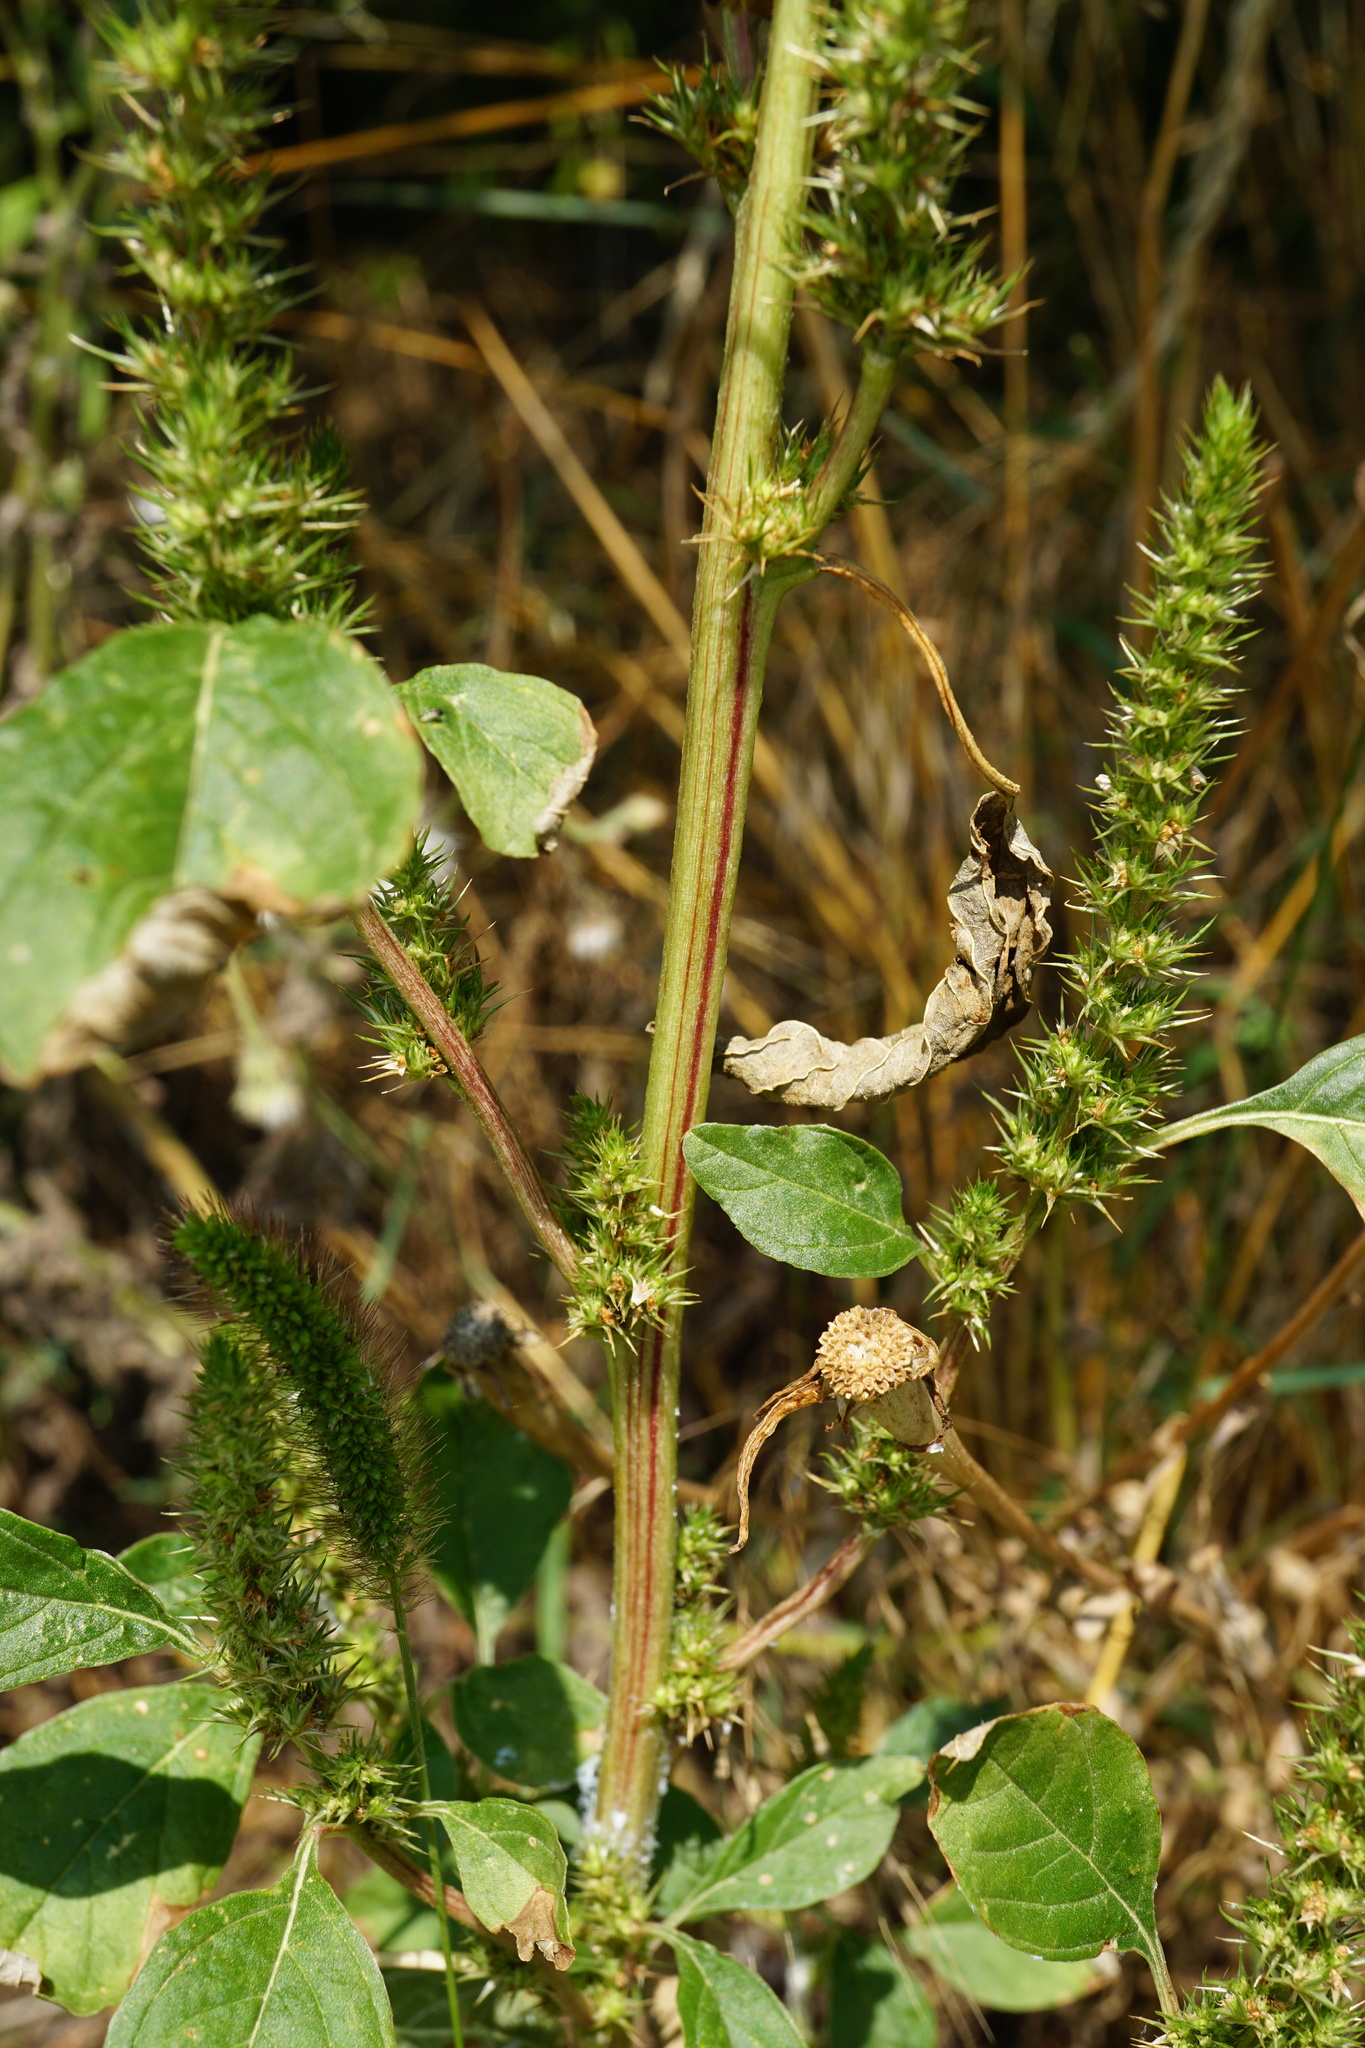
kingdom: Plantae
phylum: Tracheophyta
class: Magnoliopsida
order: Caryophyllales
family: Amaranthaceae
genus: Amaranthus
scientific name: Amaranthus powellii
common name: Powell's amaranth
